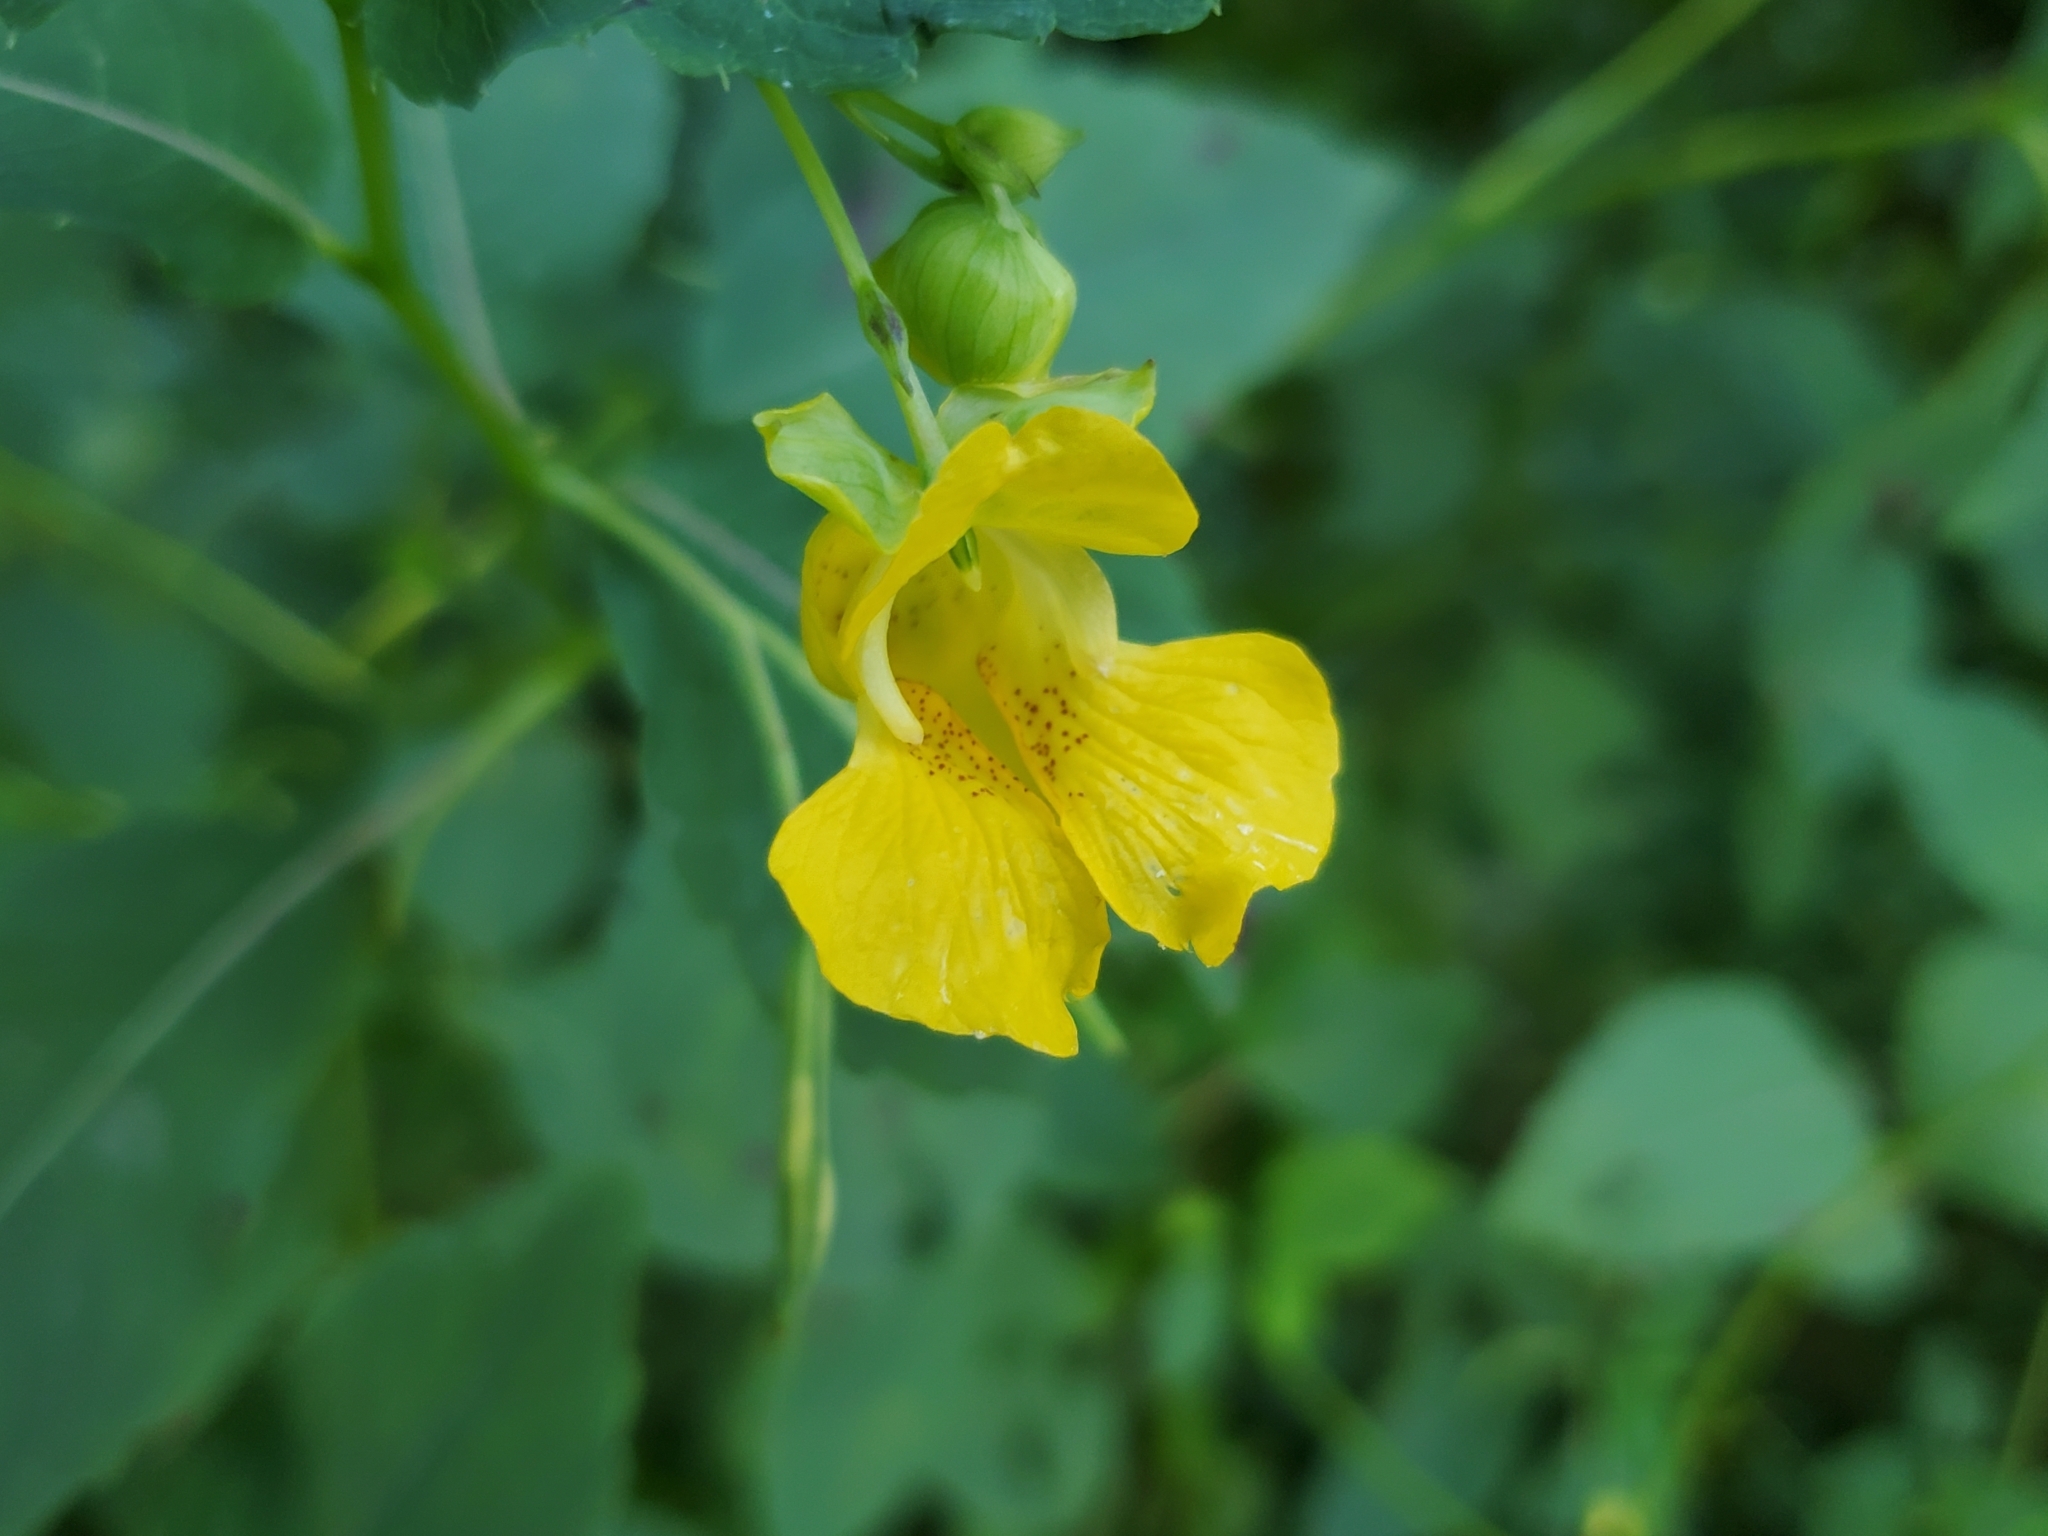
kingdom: Plantae
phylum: Tracheophyta
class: Magnoliopsida
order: Ericales
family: Balsaminaceae
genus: Impatiens
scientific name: Impatiens pallida
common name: Pale snapweed
